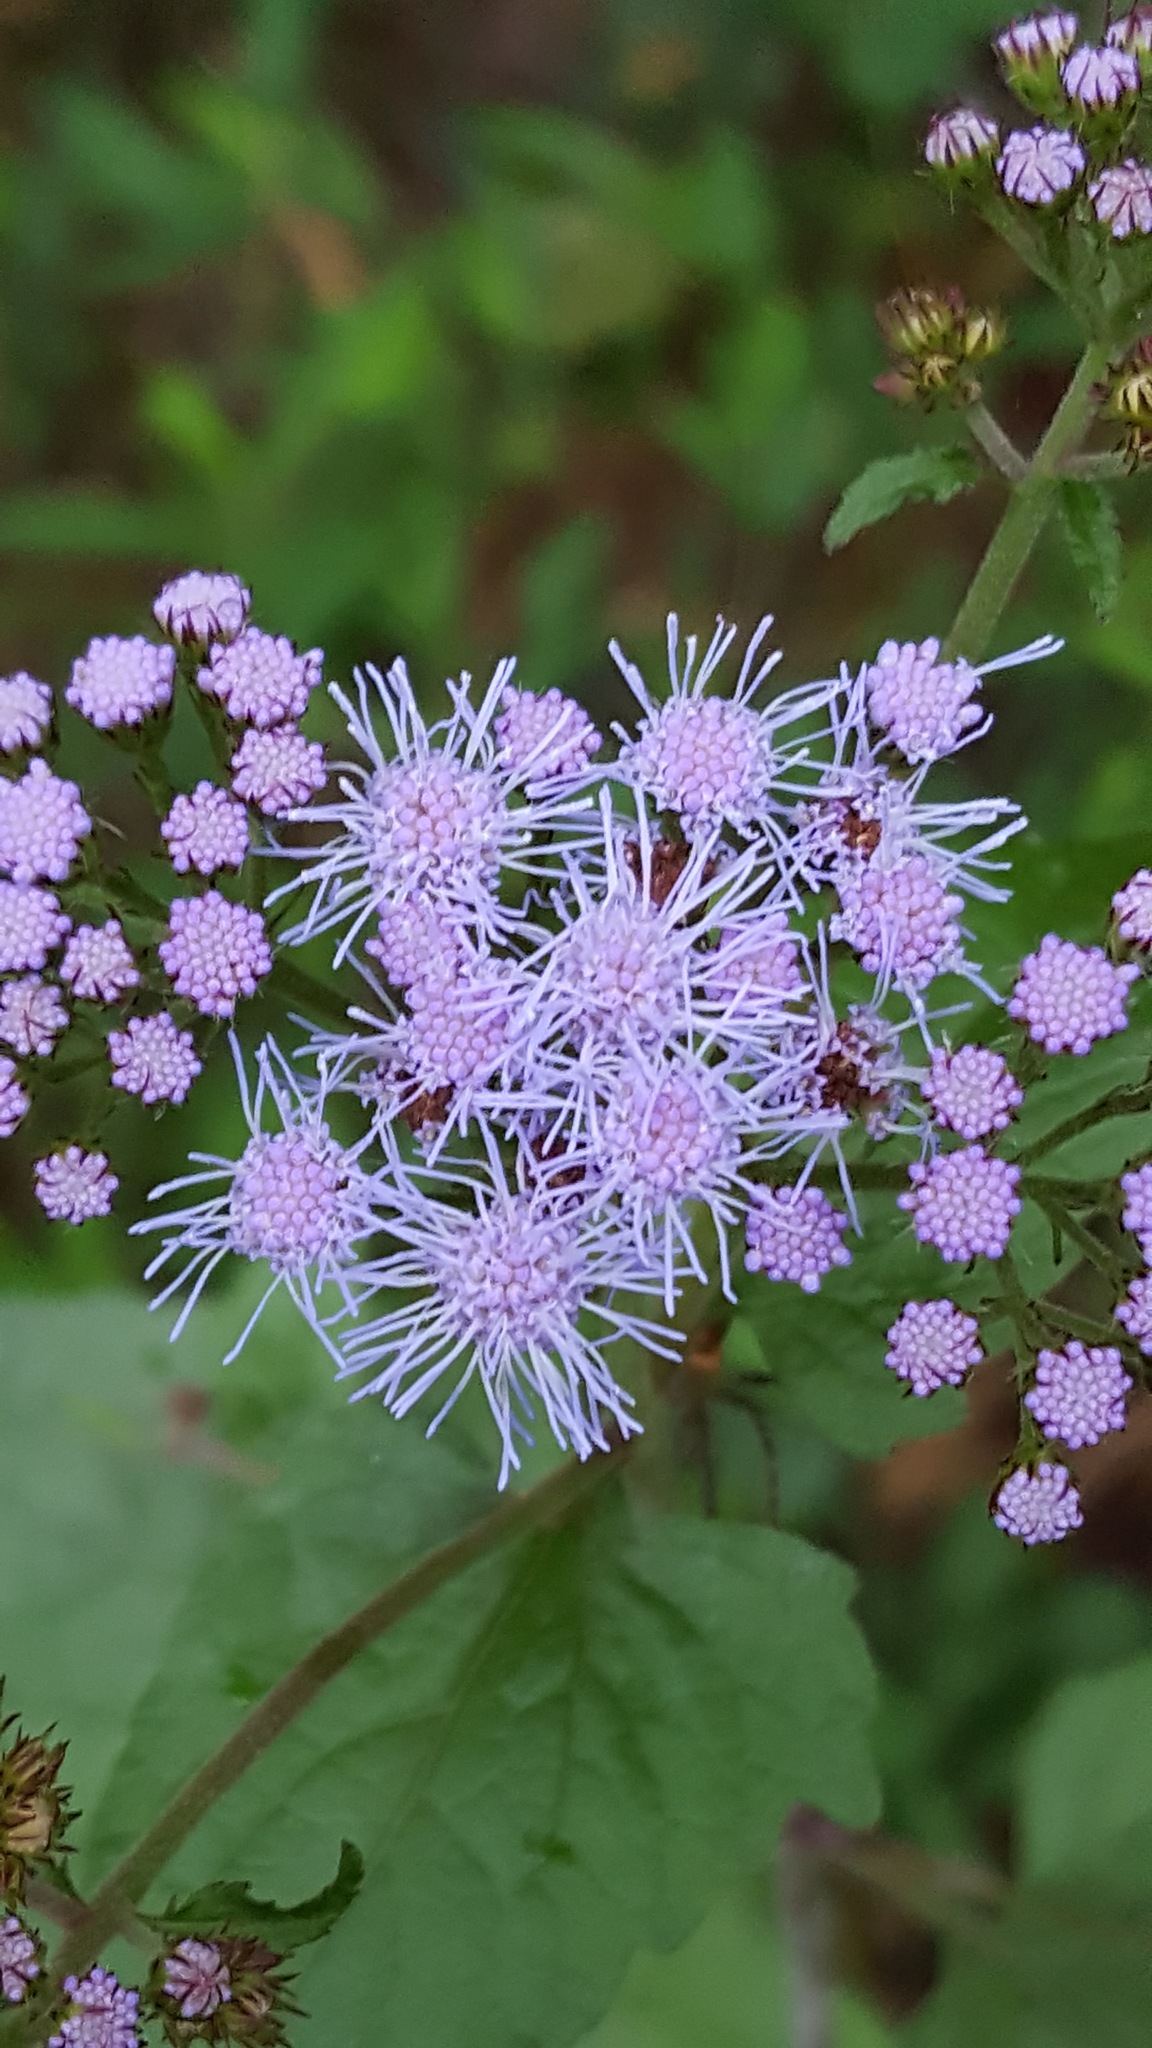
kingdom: Plantae
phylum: Tracheophyta
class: Magnoliopsida
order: Asterales
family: Asteraceae
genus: Conoclinium
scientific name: Conoclinium coelestinum
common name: Blue mistflower
